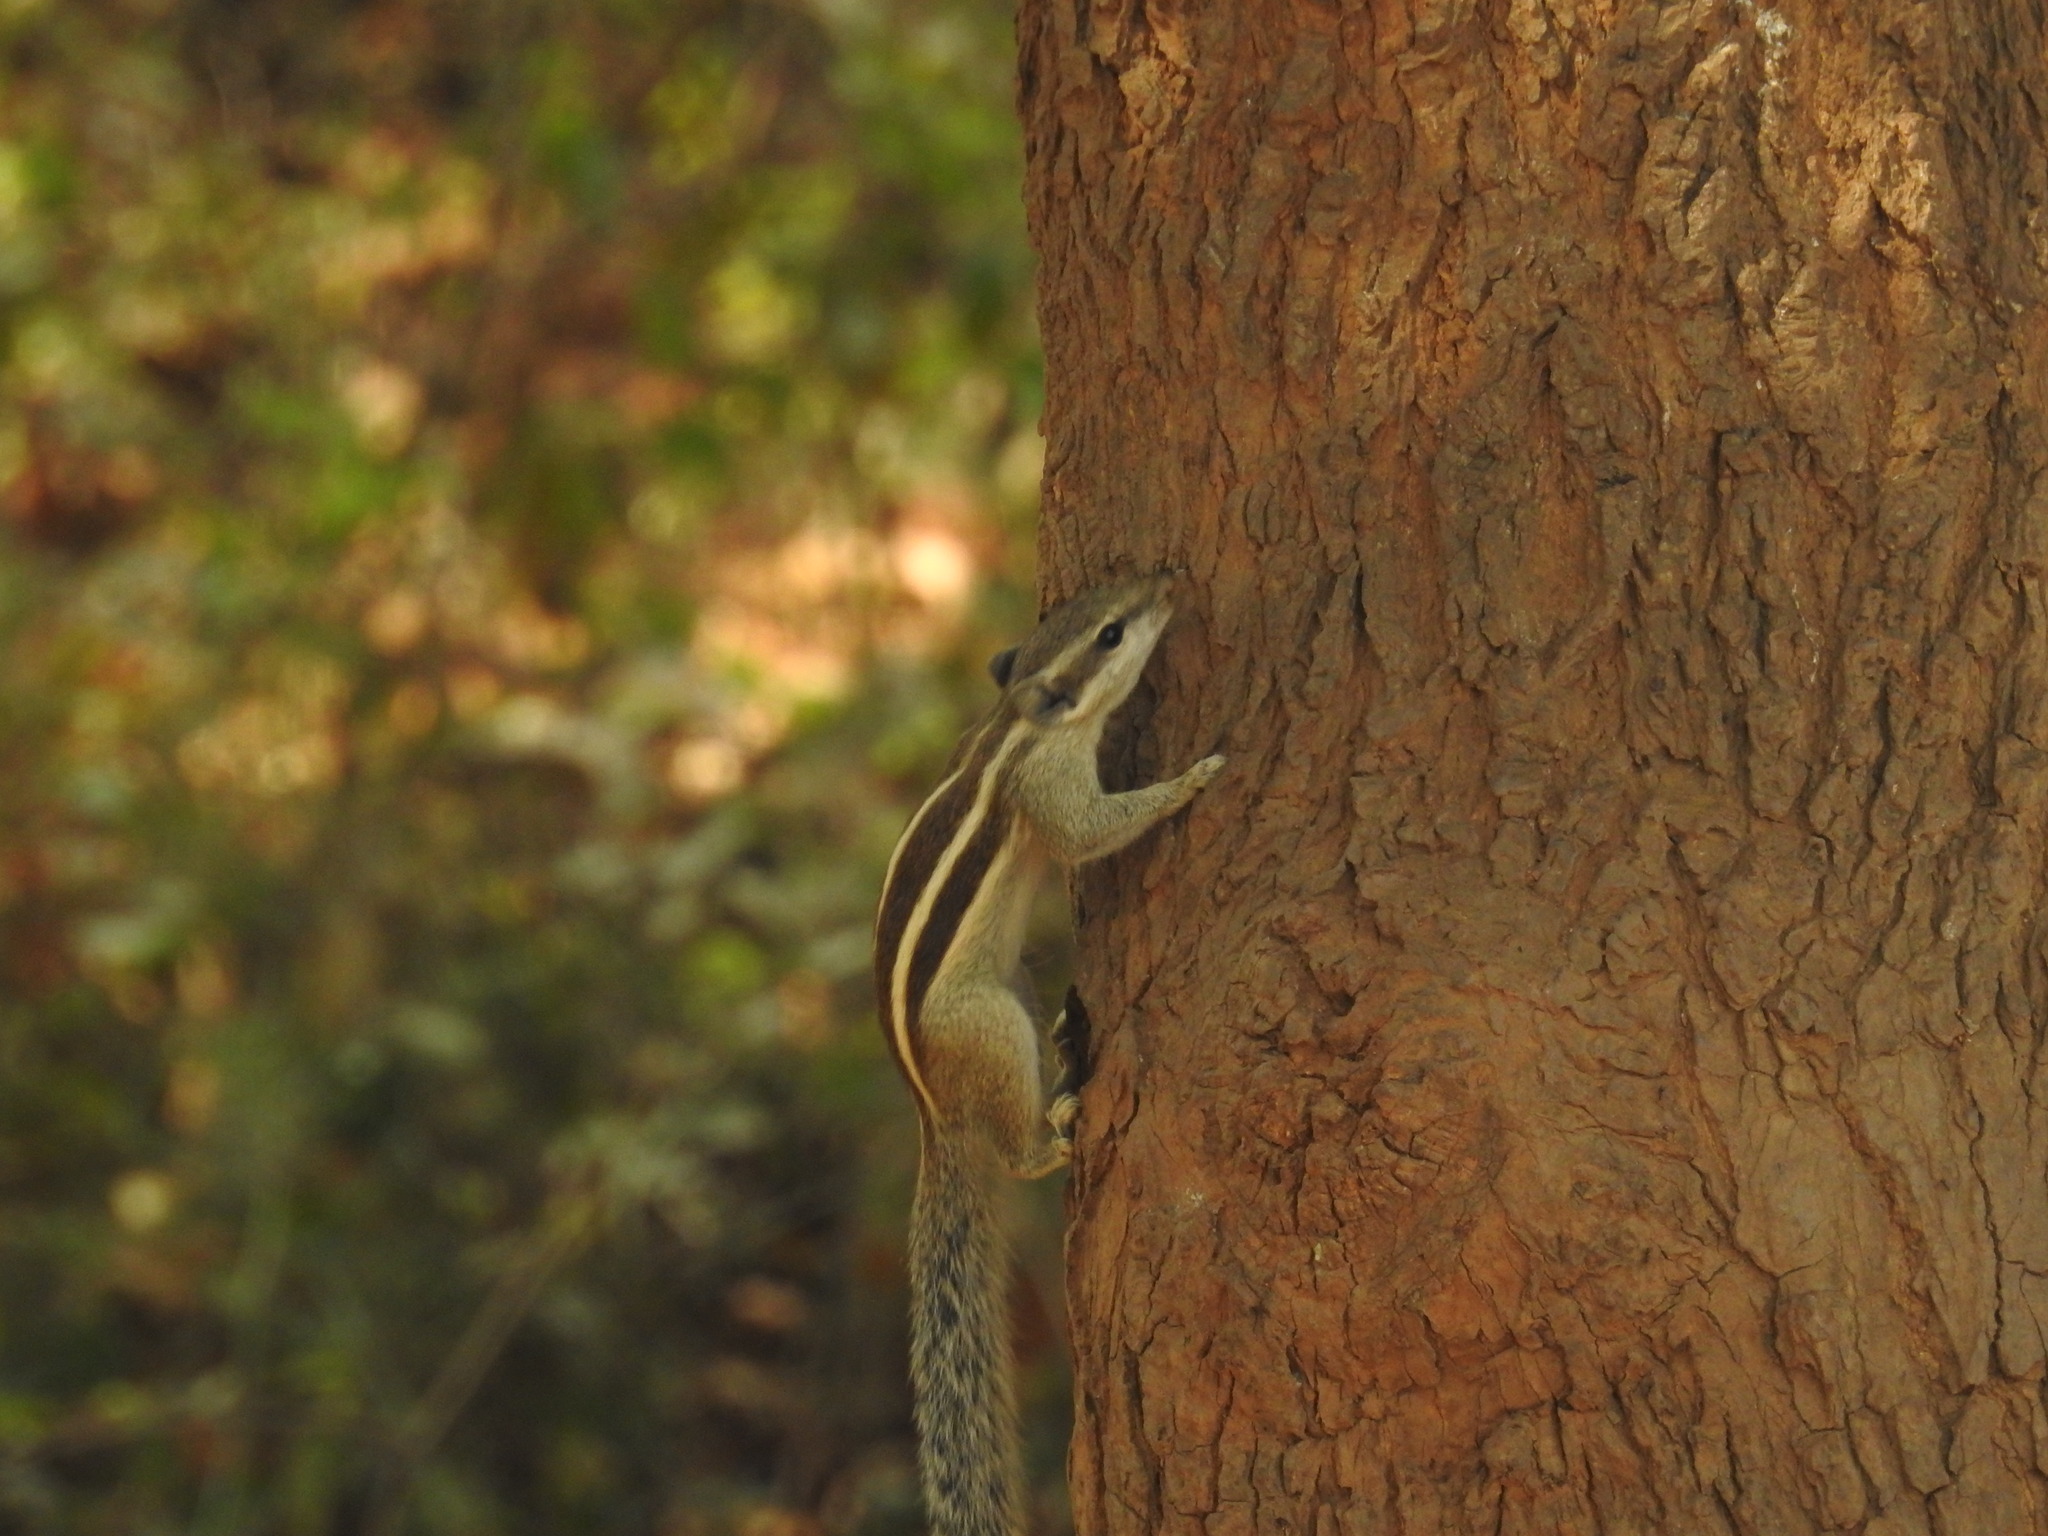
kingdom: Animalia
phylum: Chordata
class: Mammalia
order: Rodentia
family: Sciuridae
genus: Funambulus
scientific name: Funambulus pennantii
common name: Northern palm squirrel
